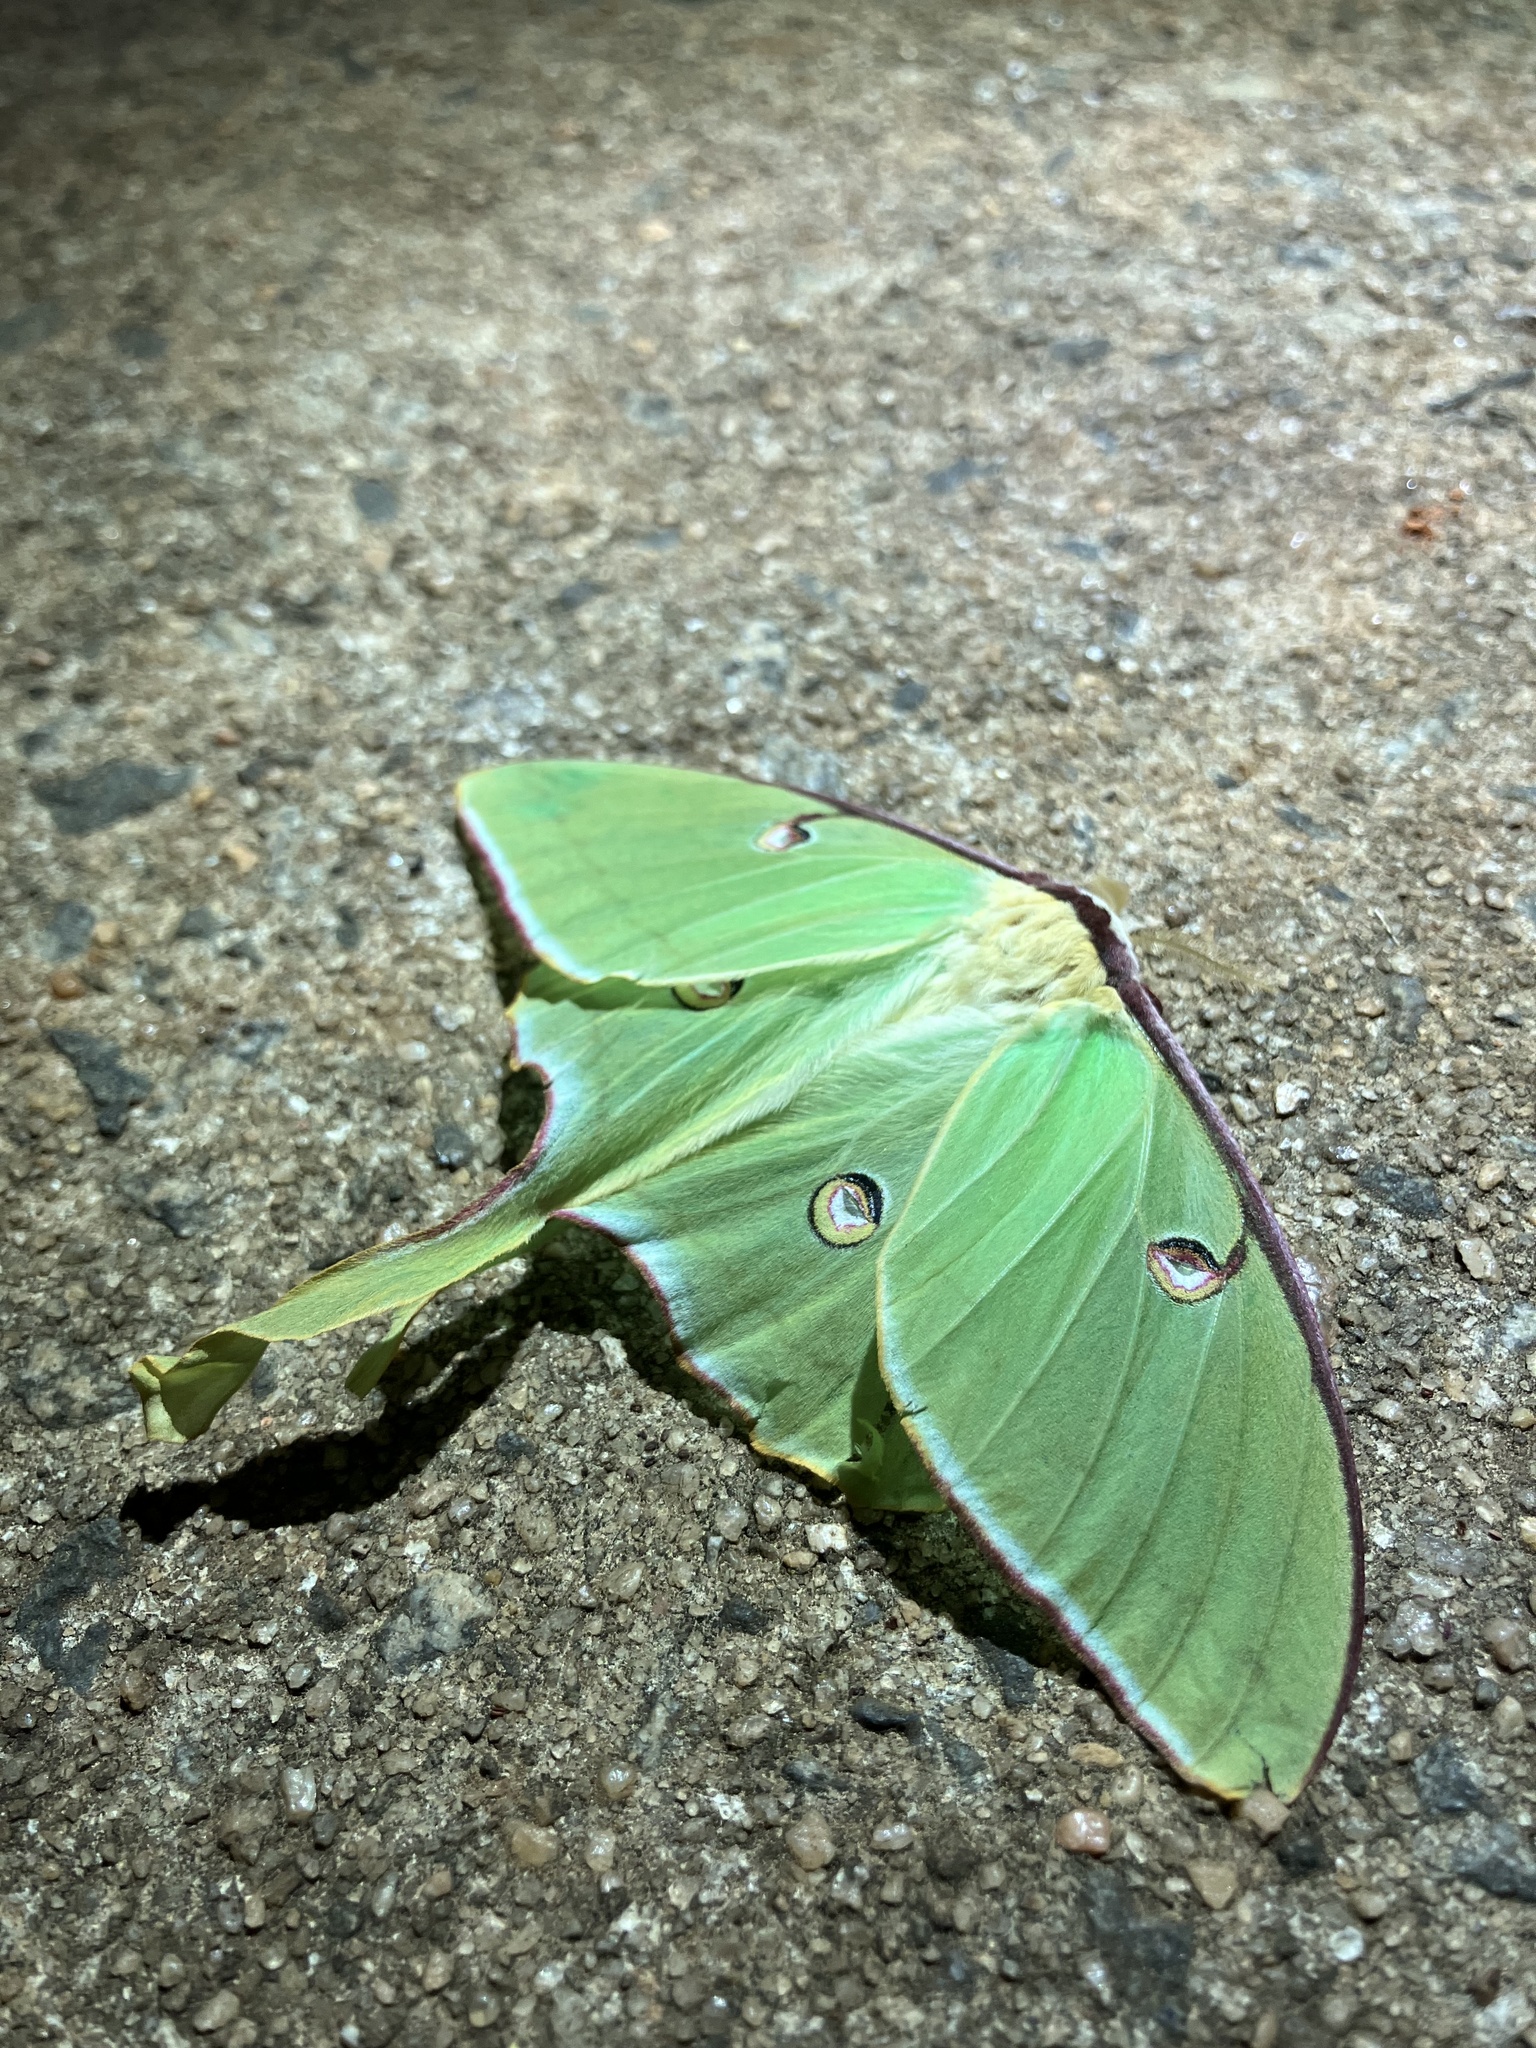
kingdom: Animalia
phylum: Arthropoda
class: Insecta
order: Lepidoptera
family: Saturniidae
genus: Actias
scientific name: Actias luna
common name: Luna moth
